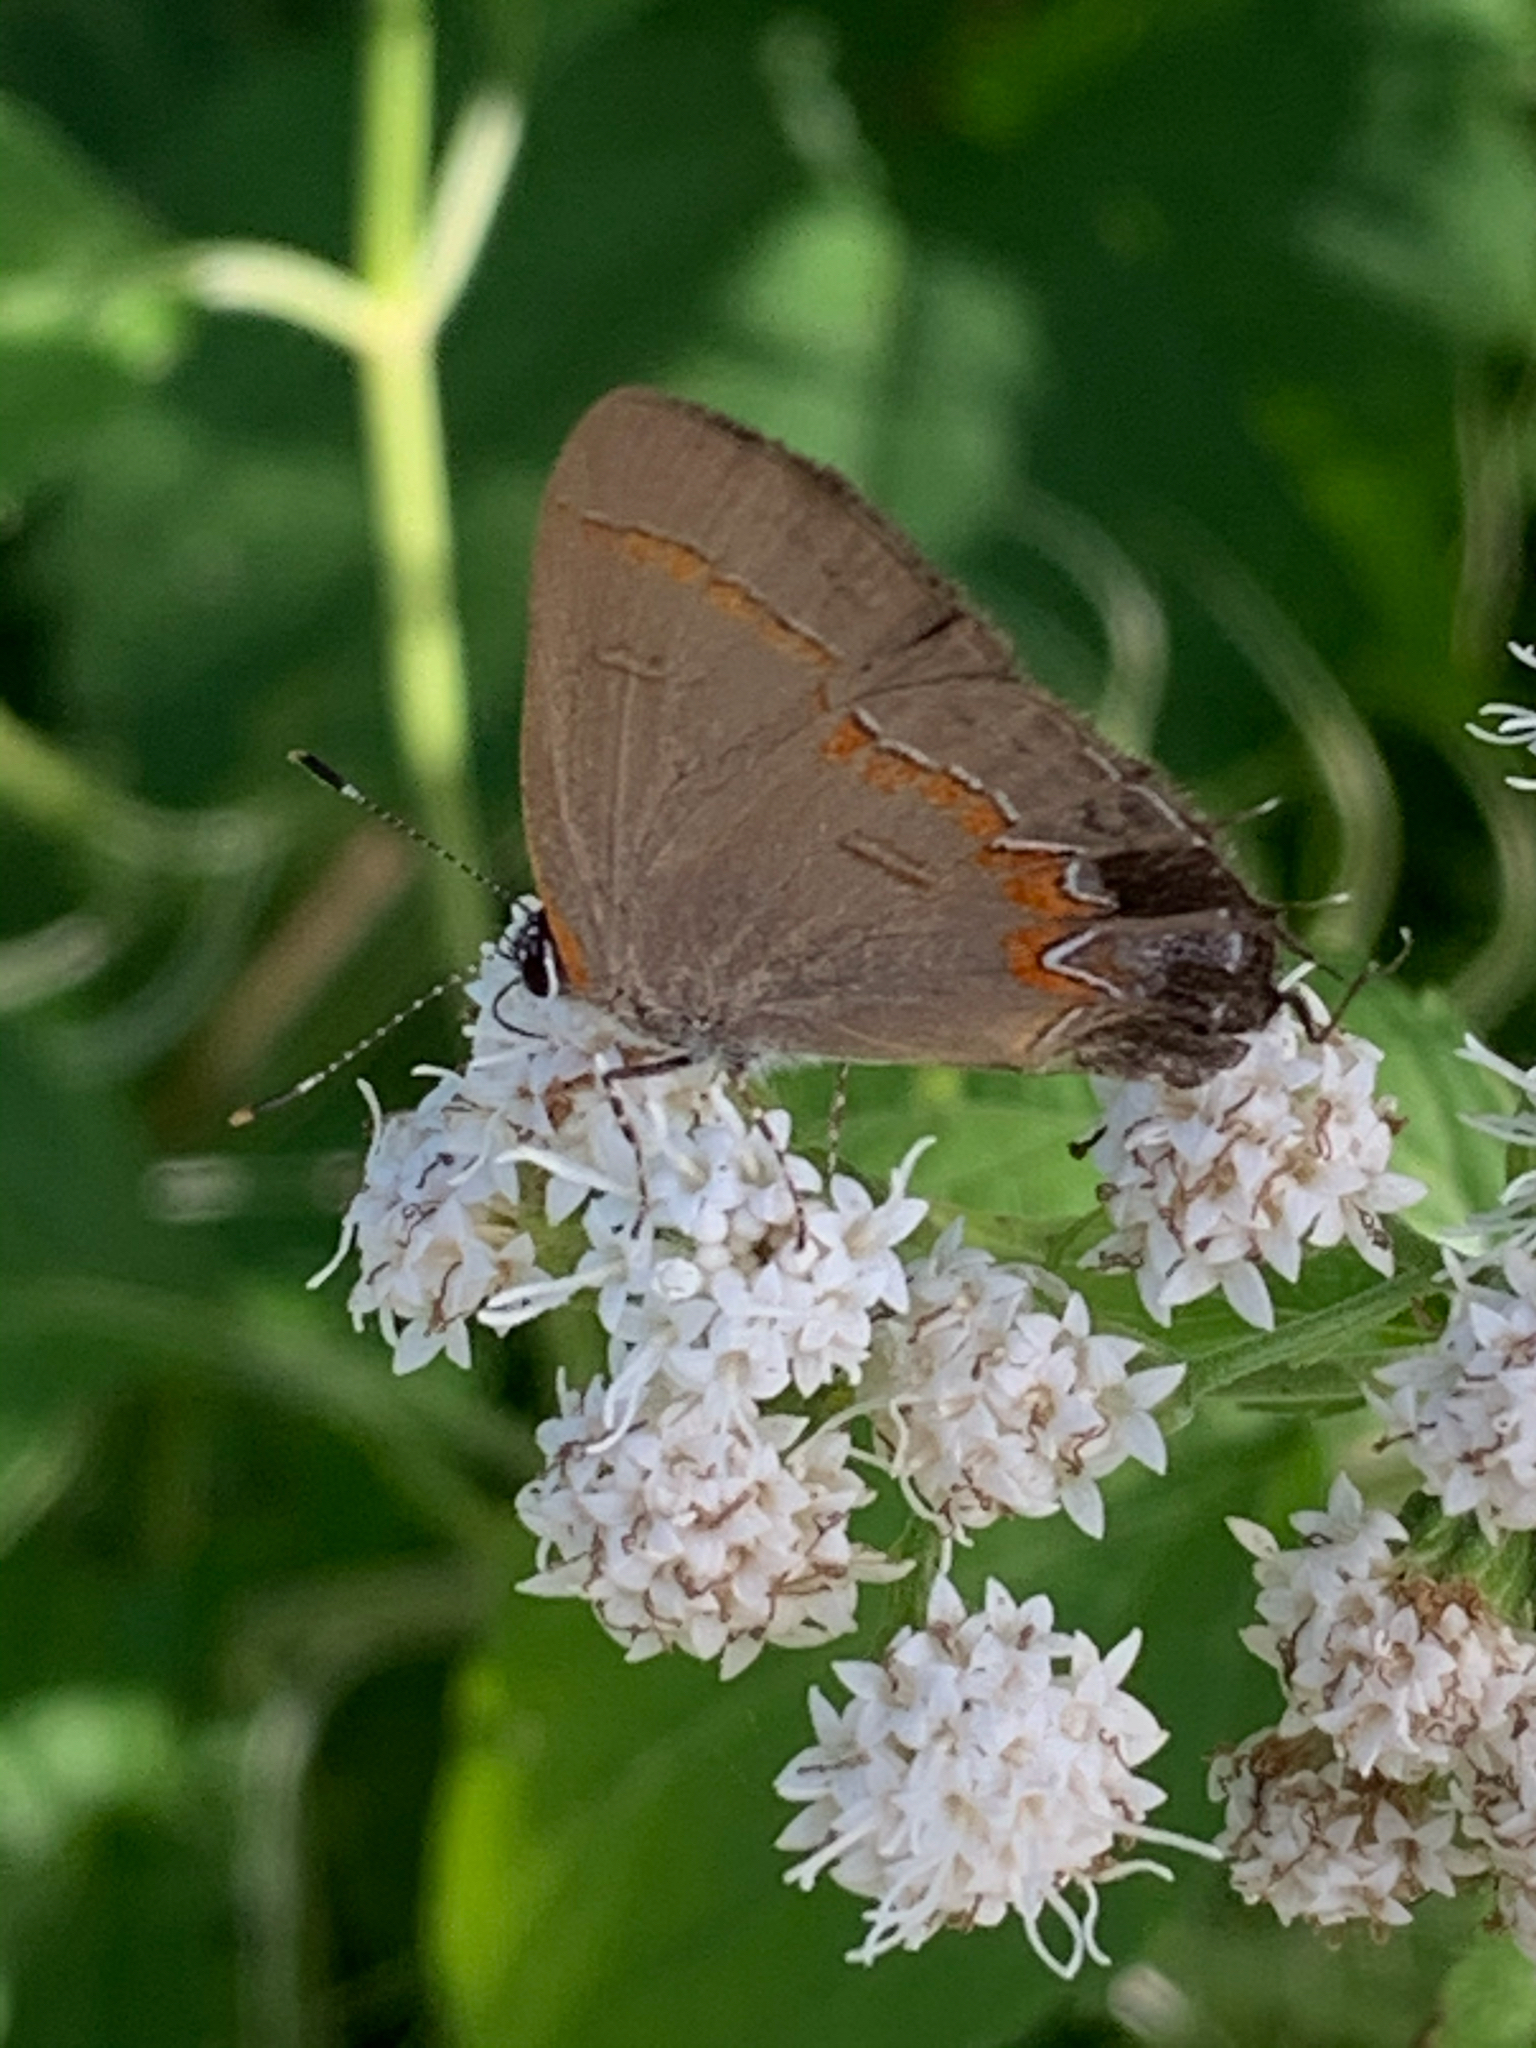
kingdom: Animalia
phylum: Arthropoda
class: Insecta
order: Lepidoptera
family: Lycaenidae
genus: Calycopis
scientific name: Calycopis cecrops
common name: Red-banded hairstreak
